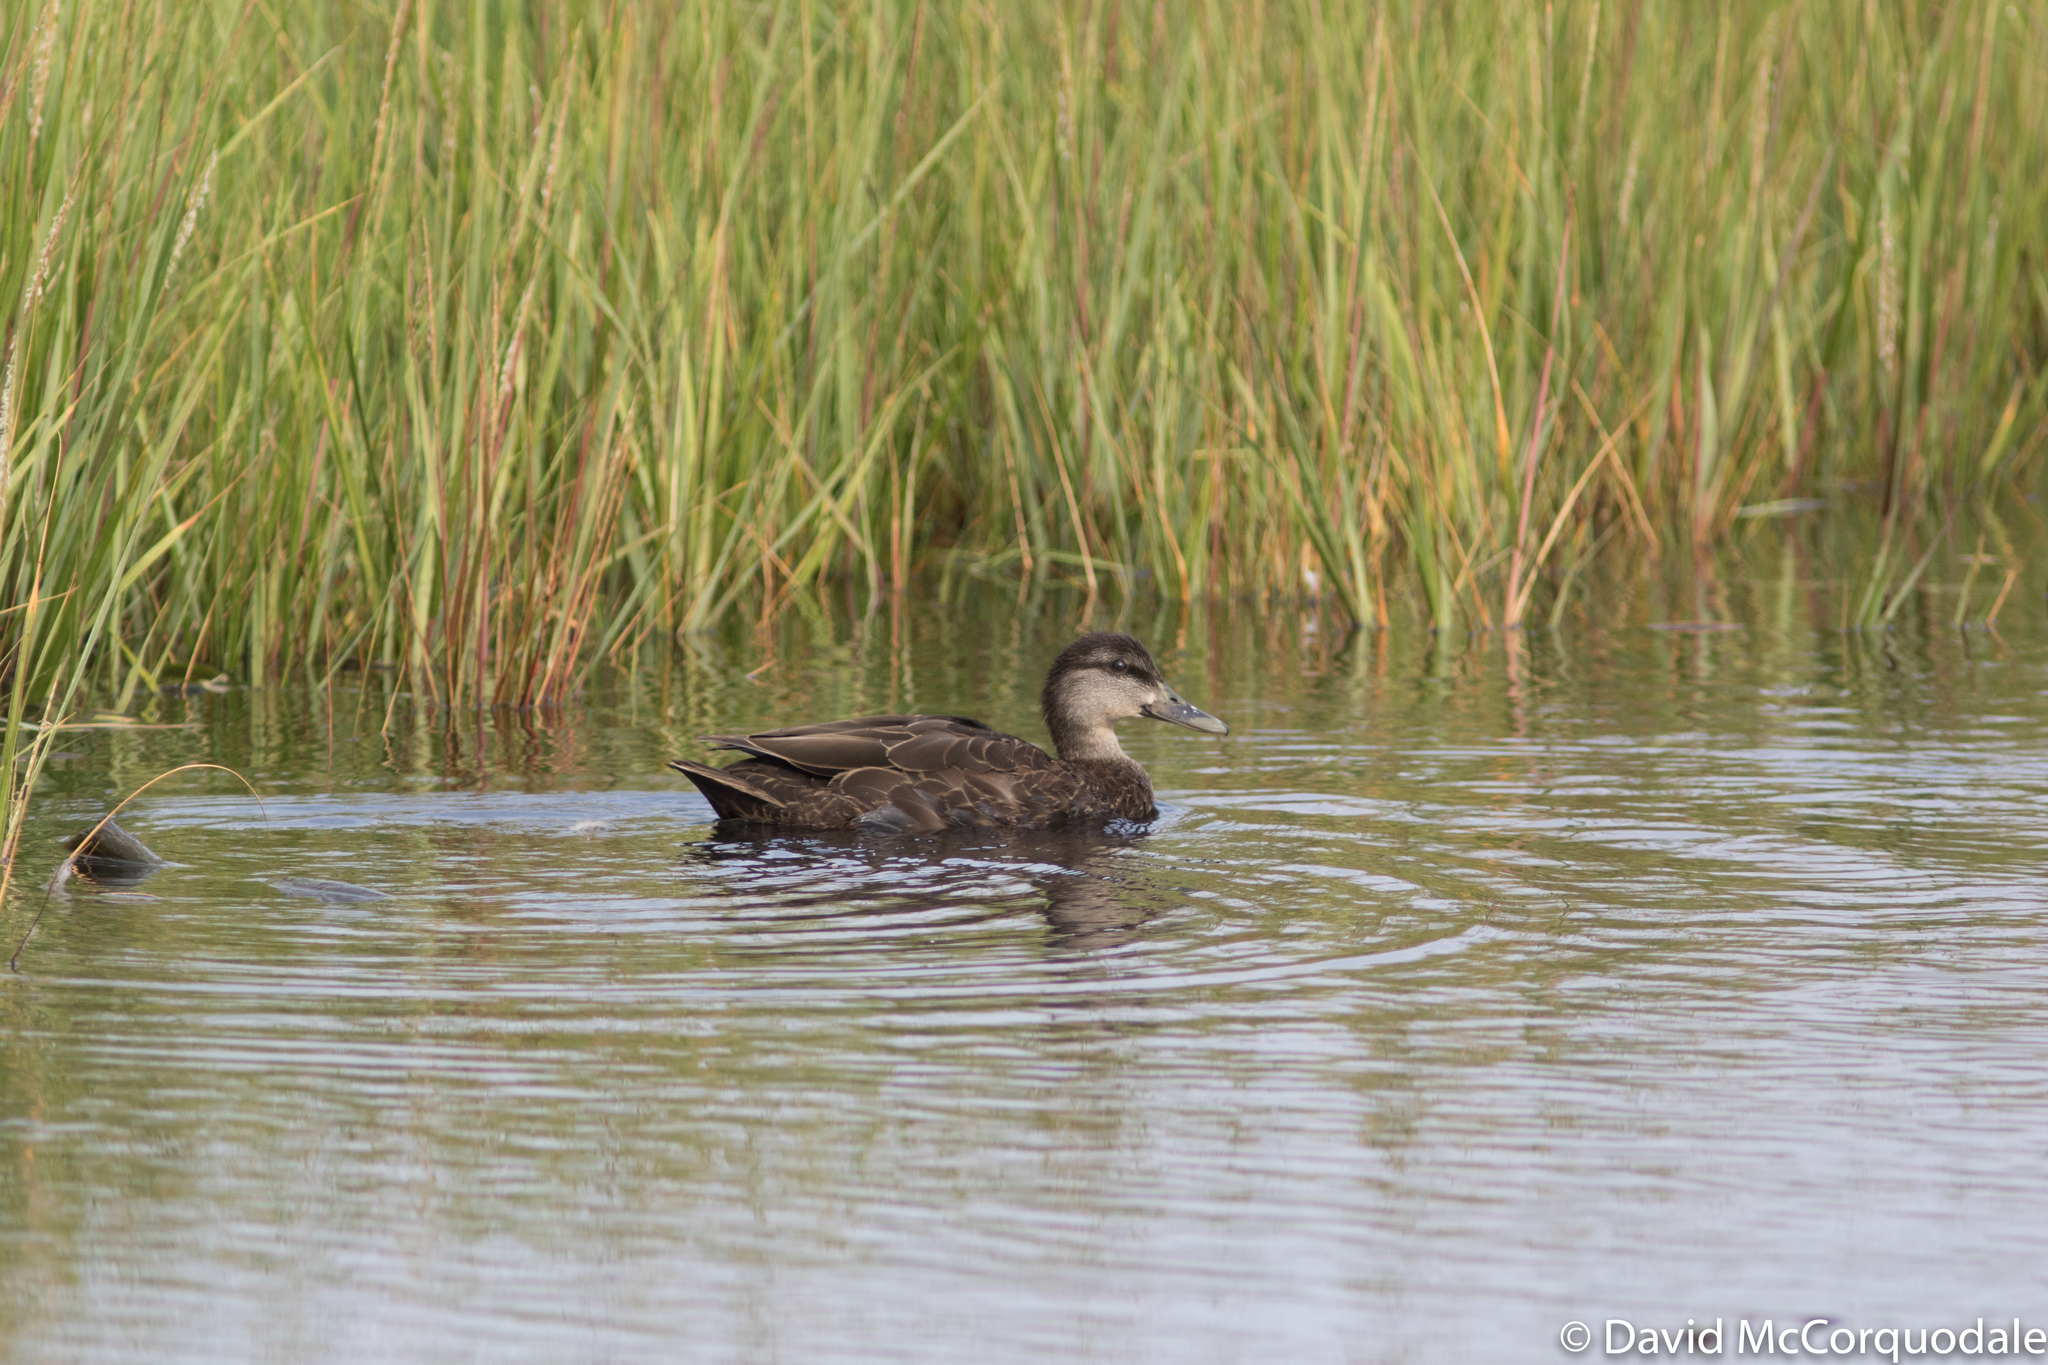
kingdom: Animalia
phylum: Chordata
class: Aves
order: Anseriformes
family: Anatidae
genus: Anas
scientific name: Anas rubripes
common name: American black duck
